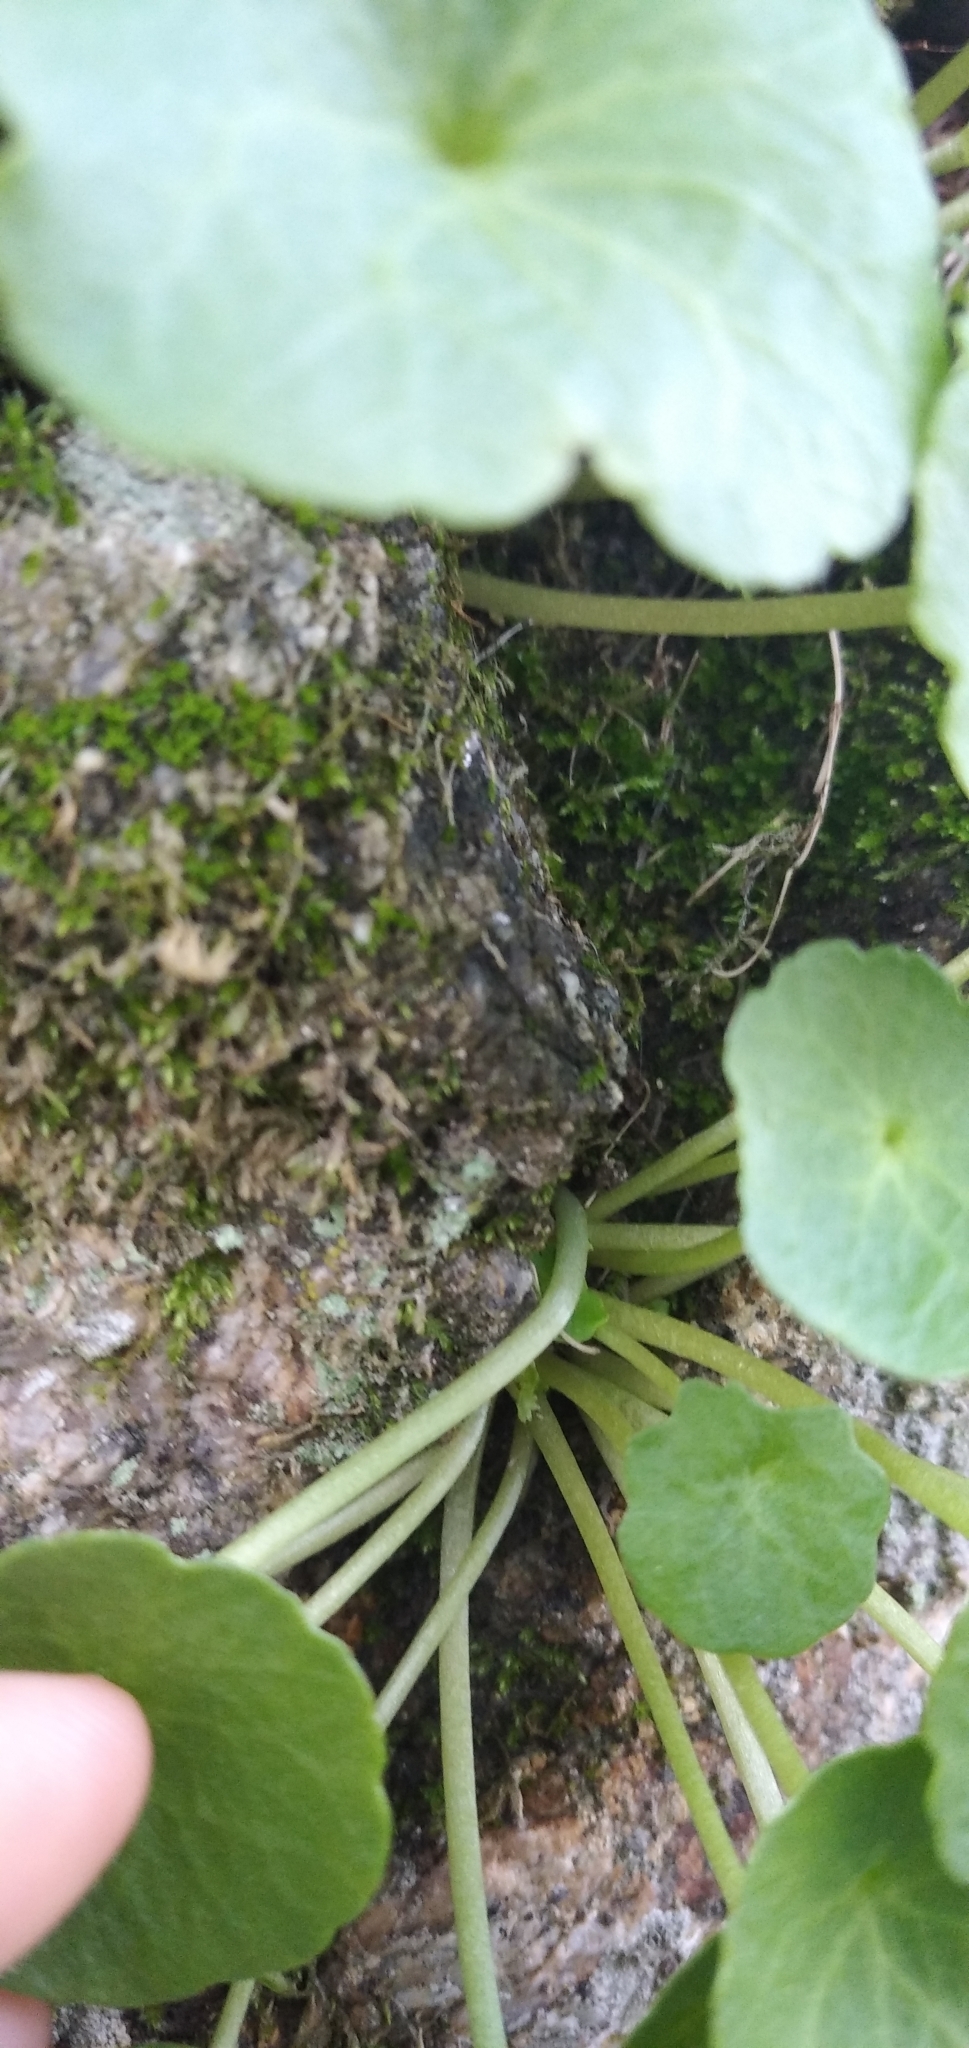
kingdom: Plantae
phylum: Tracheophyta
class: Magnoliopsida
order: Saxifragales
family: Crassulaceae
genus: Umbilicus
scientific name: Umbilicus rupestris
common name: Navelwort
